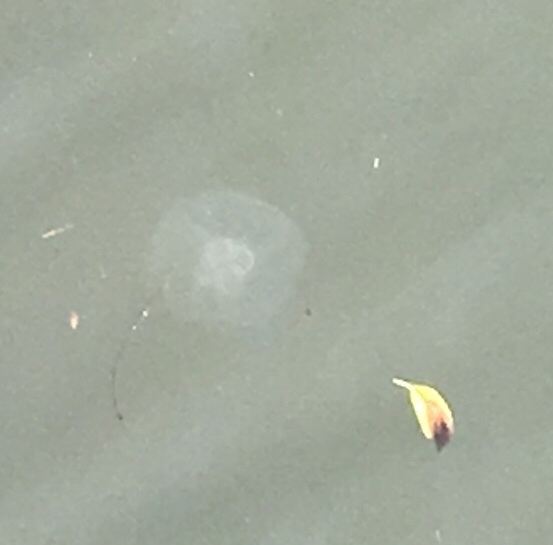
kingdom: Animalia
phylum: Cnidaria
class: Scyphozoa
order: Semaeostomeae
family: Ulmaridae
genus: Aurelia
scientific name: Aurelia labiata
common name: Pacific moon jelly
